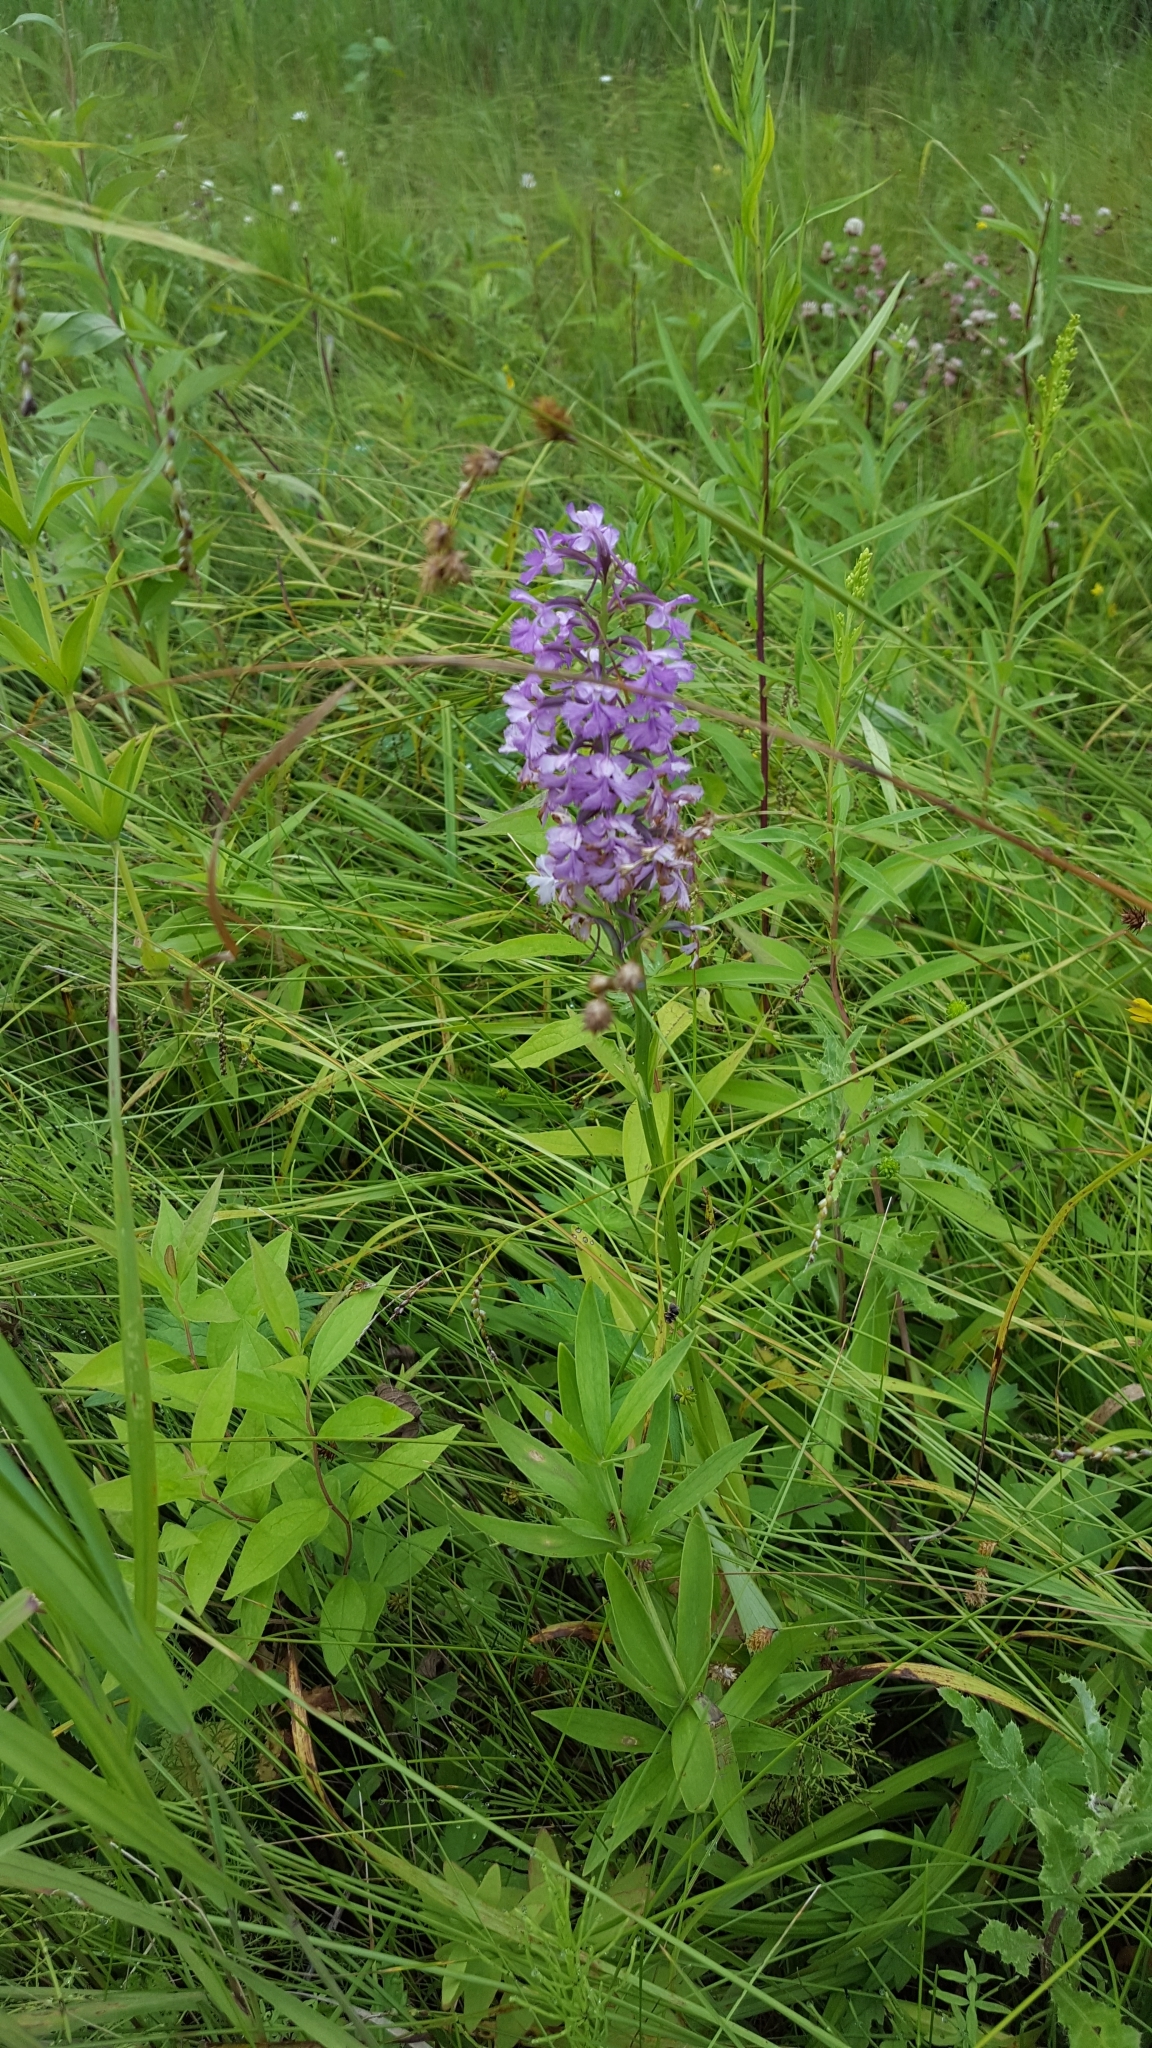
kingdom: Plantae
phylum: Tracheophyta
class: Liliopsida
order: Asparagales
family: Orchidaceae
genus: Platanthera
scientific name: Platanthera psycodes
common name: Lesser purple fringed orchid
